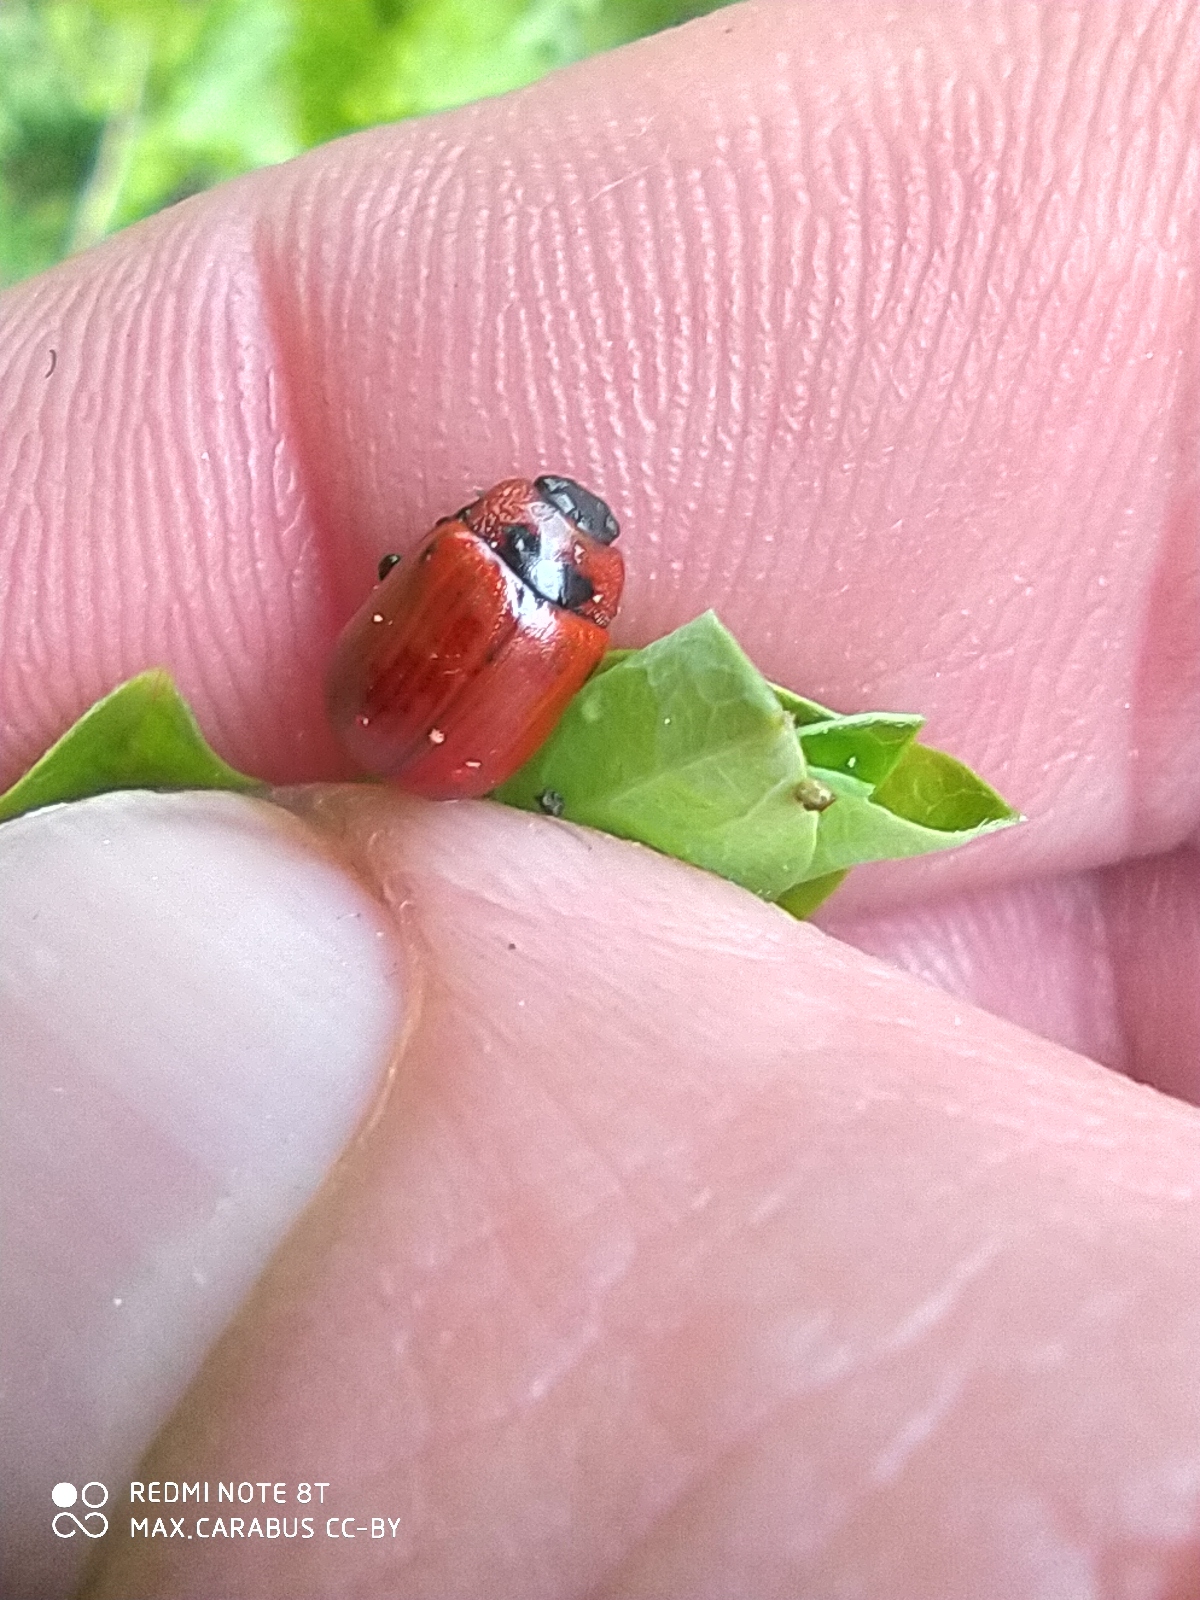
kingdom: Animalia
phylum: Arthropoda
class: Insecta
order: Coleoptera
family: Chrysomelidae
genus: Gonioctena
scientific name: Gonioctena
